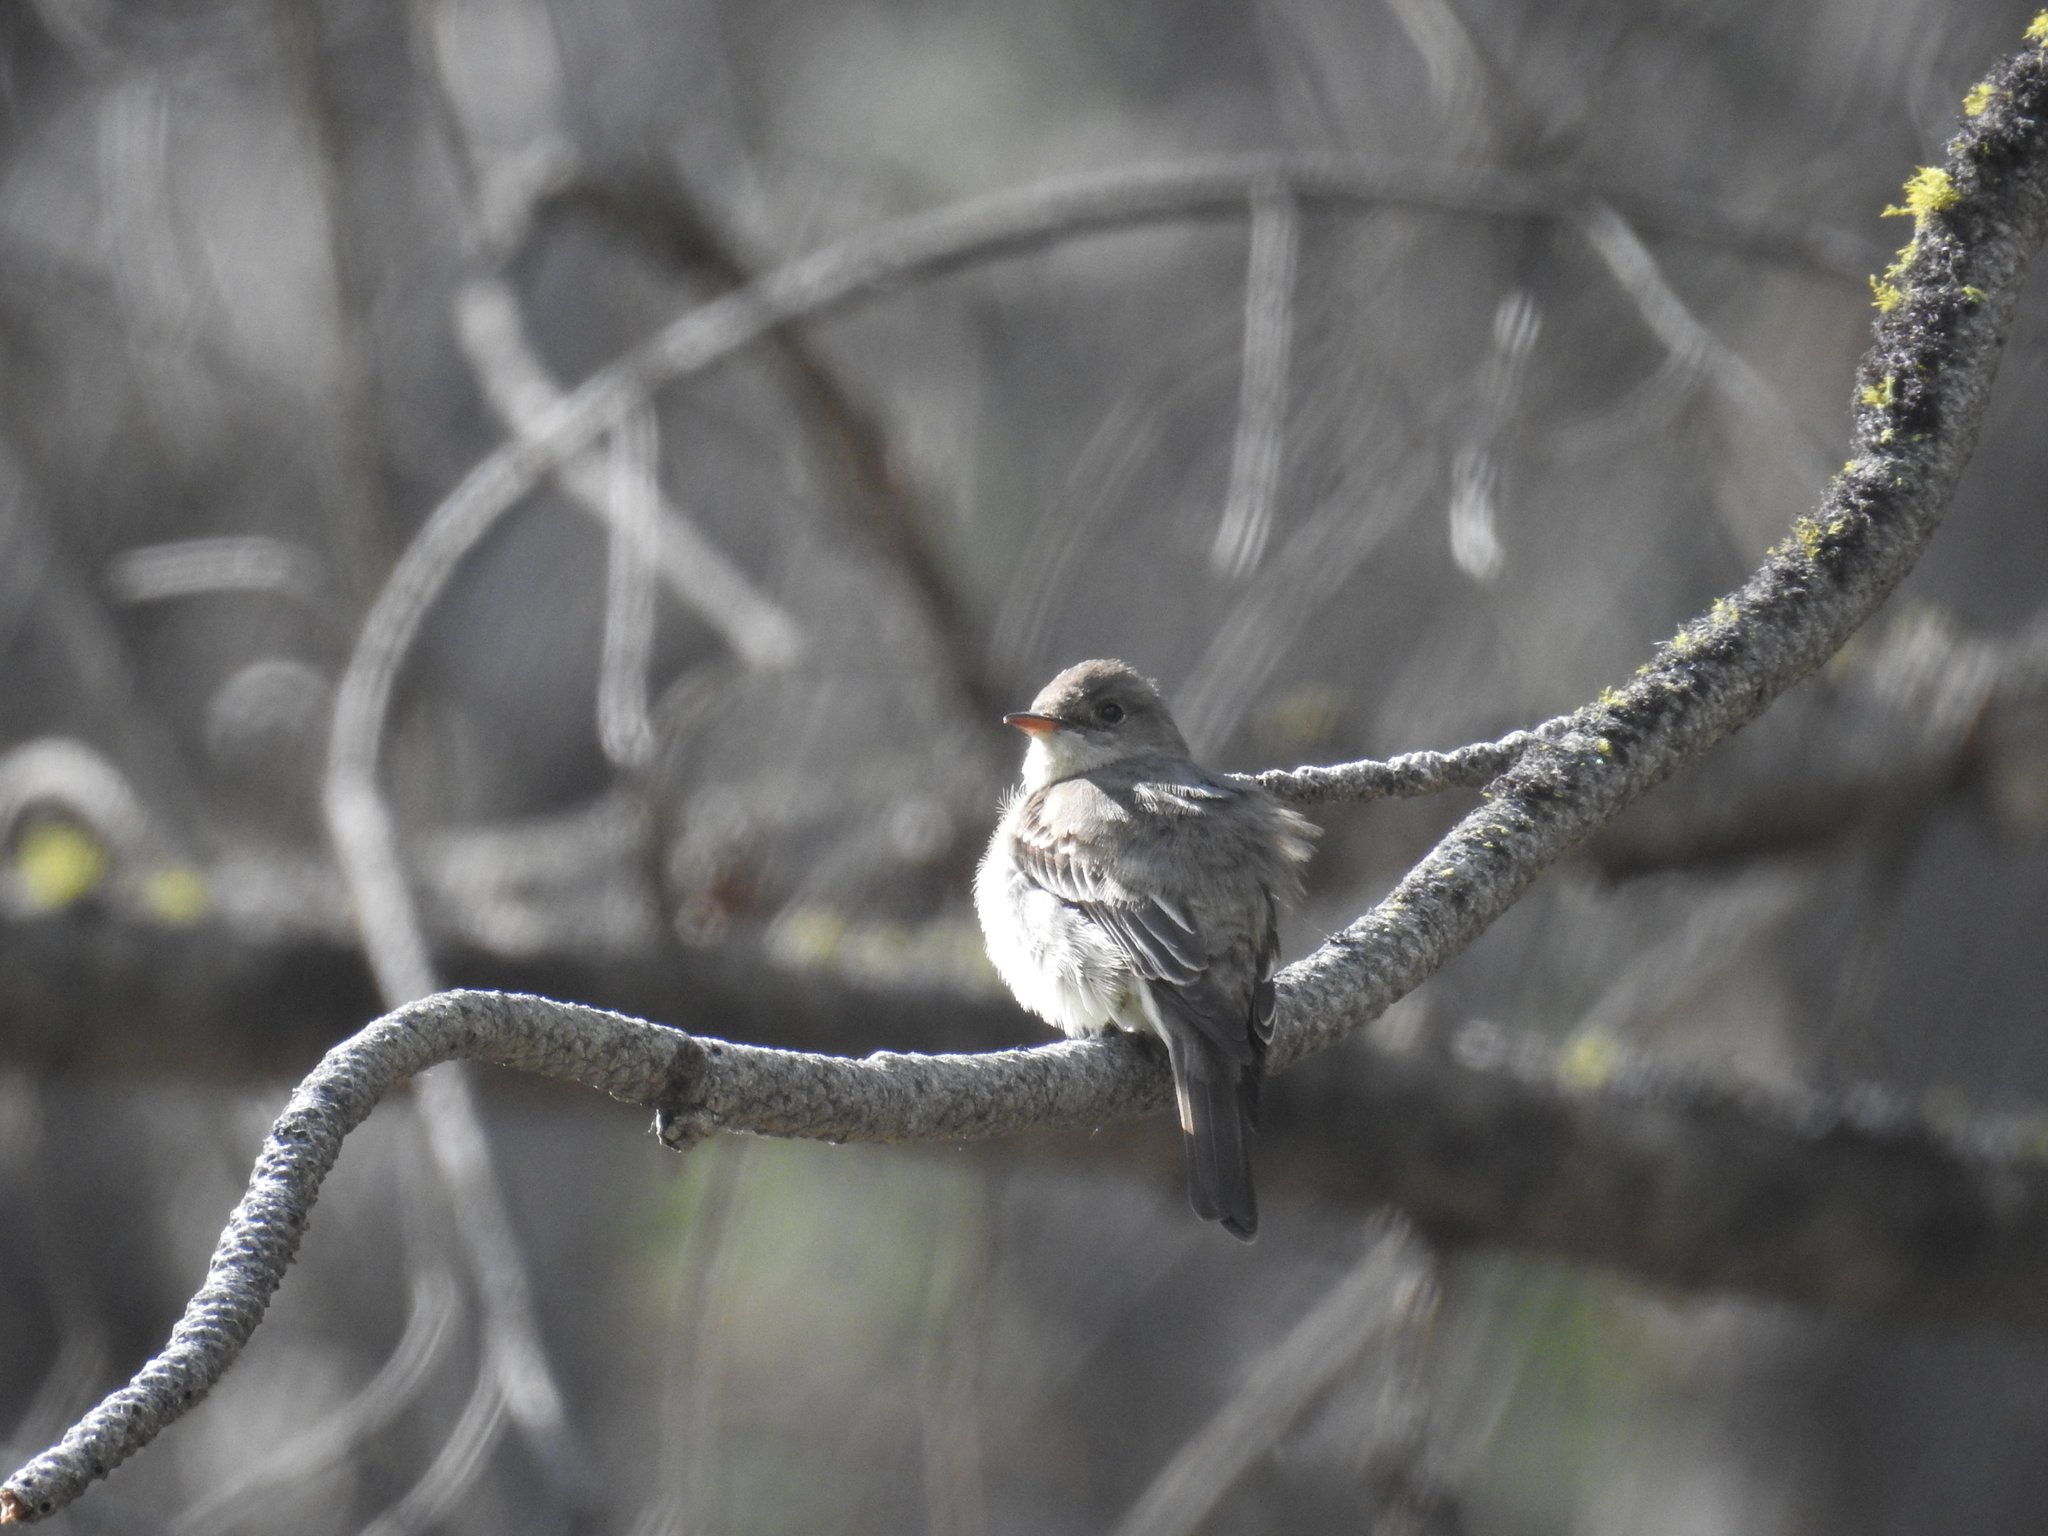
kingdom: Animalia
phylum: Chordata
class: Aves
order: Passeriformes
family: Tyrannidae
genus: Contopus
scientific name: Contopus sordidulus
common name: Western wood-pewee
